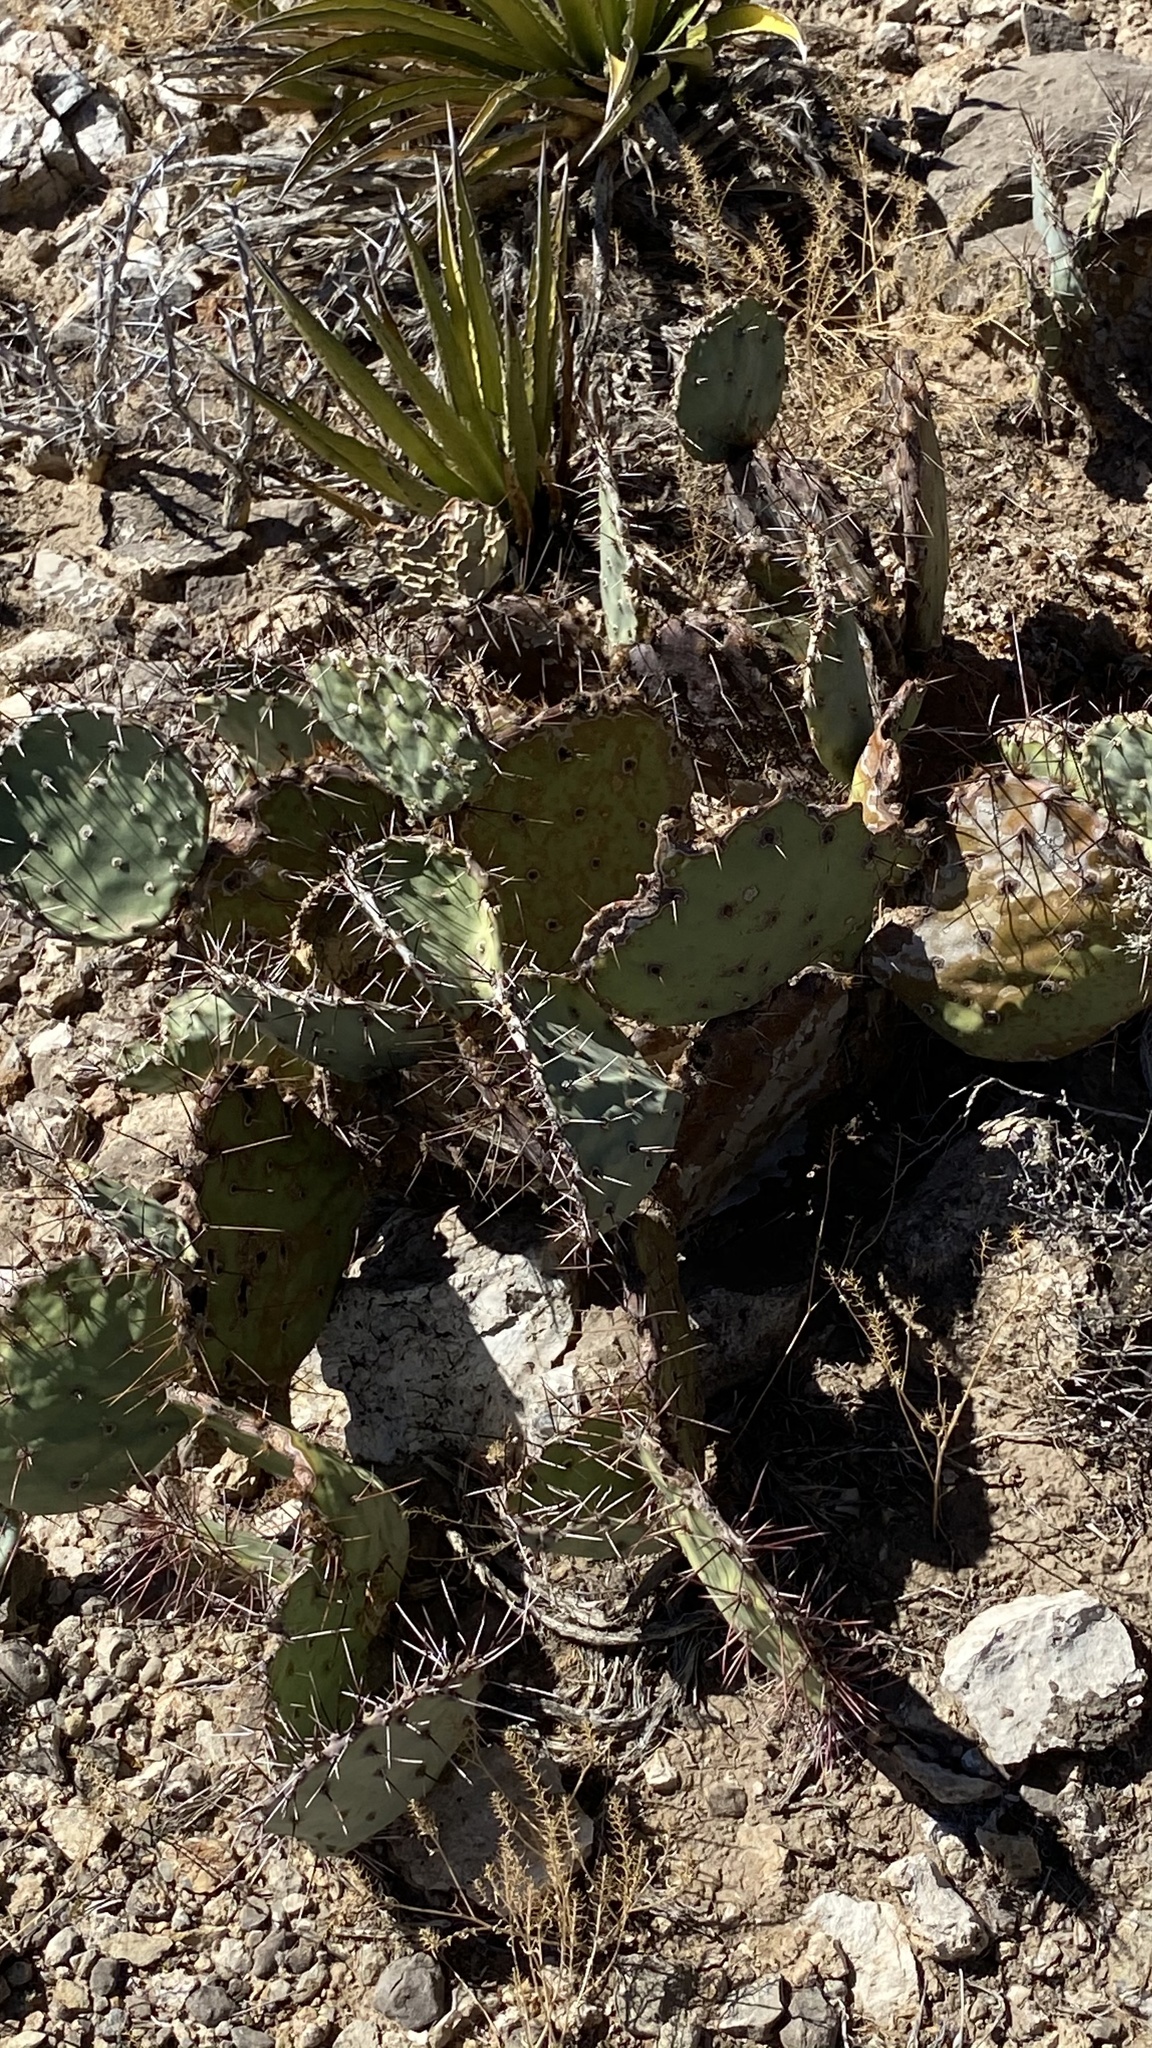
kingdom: Plantae
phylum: Tracheophyta
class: Magnoliopsida
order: Caryophyllales
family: Cactaceae
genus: Opuntia
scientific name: Opuntia engelmannii
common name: Cactus-apple
